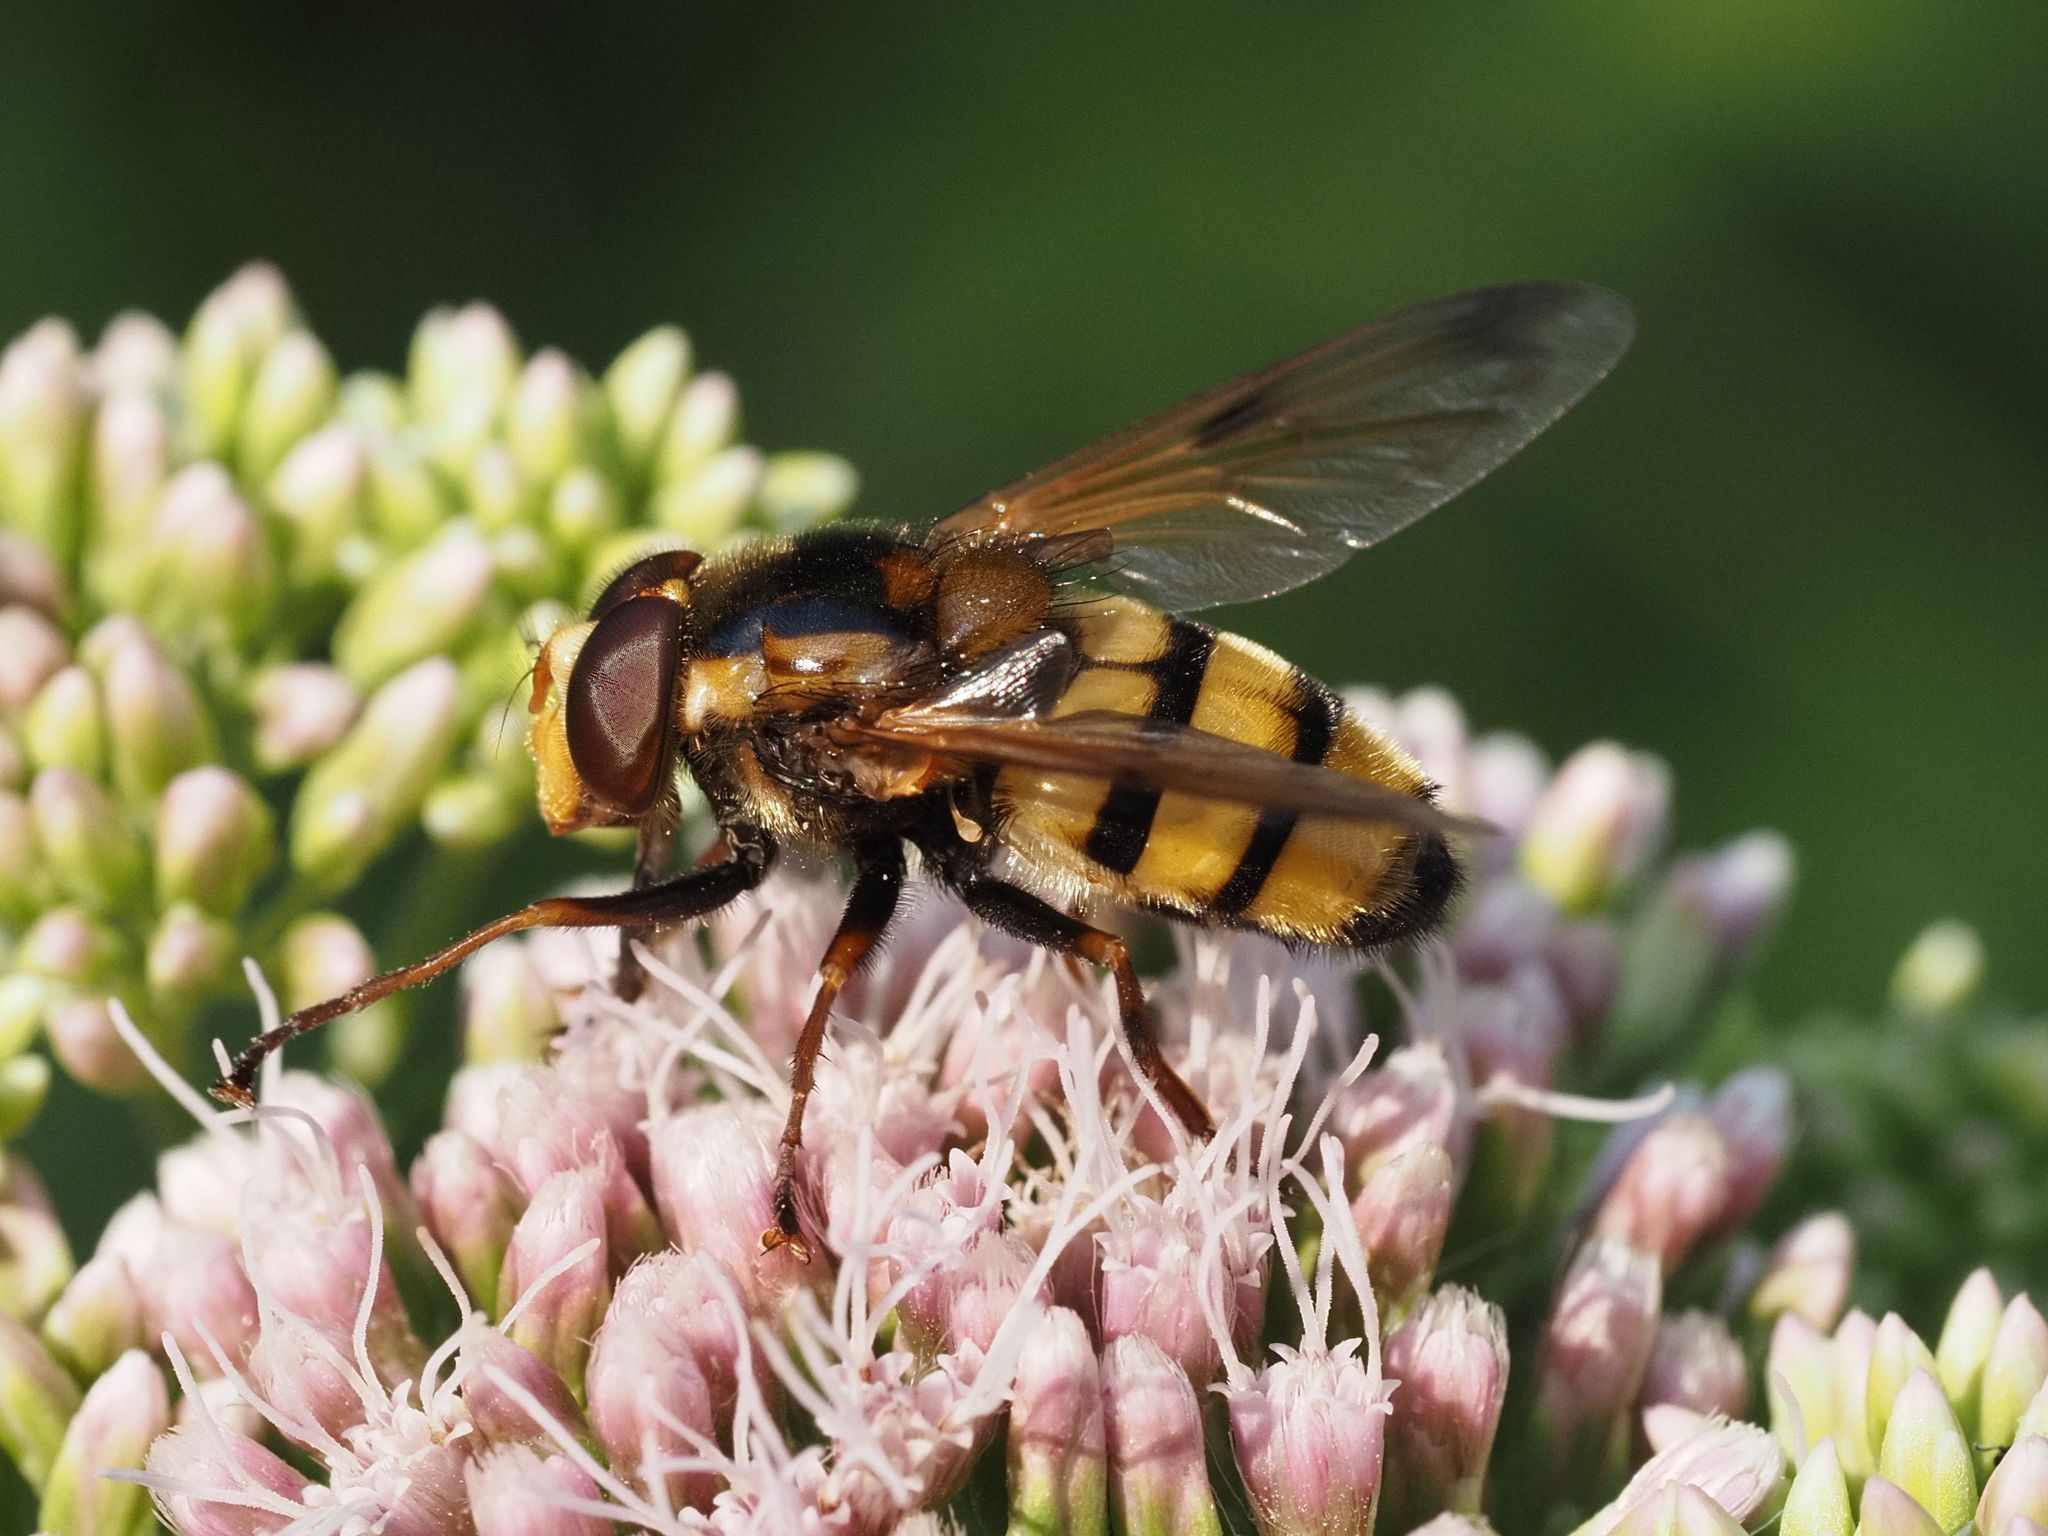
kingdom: Animalia
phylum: Arthropoda
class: Insecta
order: Diptera
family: Syrphidae
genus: Volucella
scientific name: Volucella inanis
